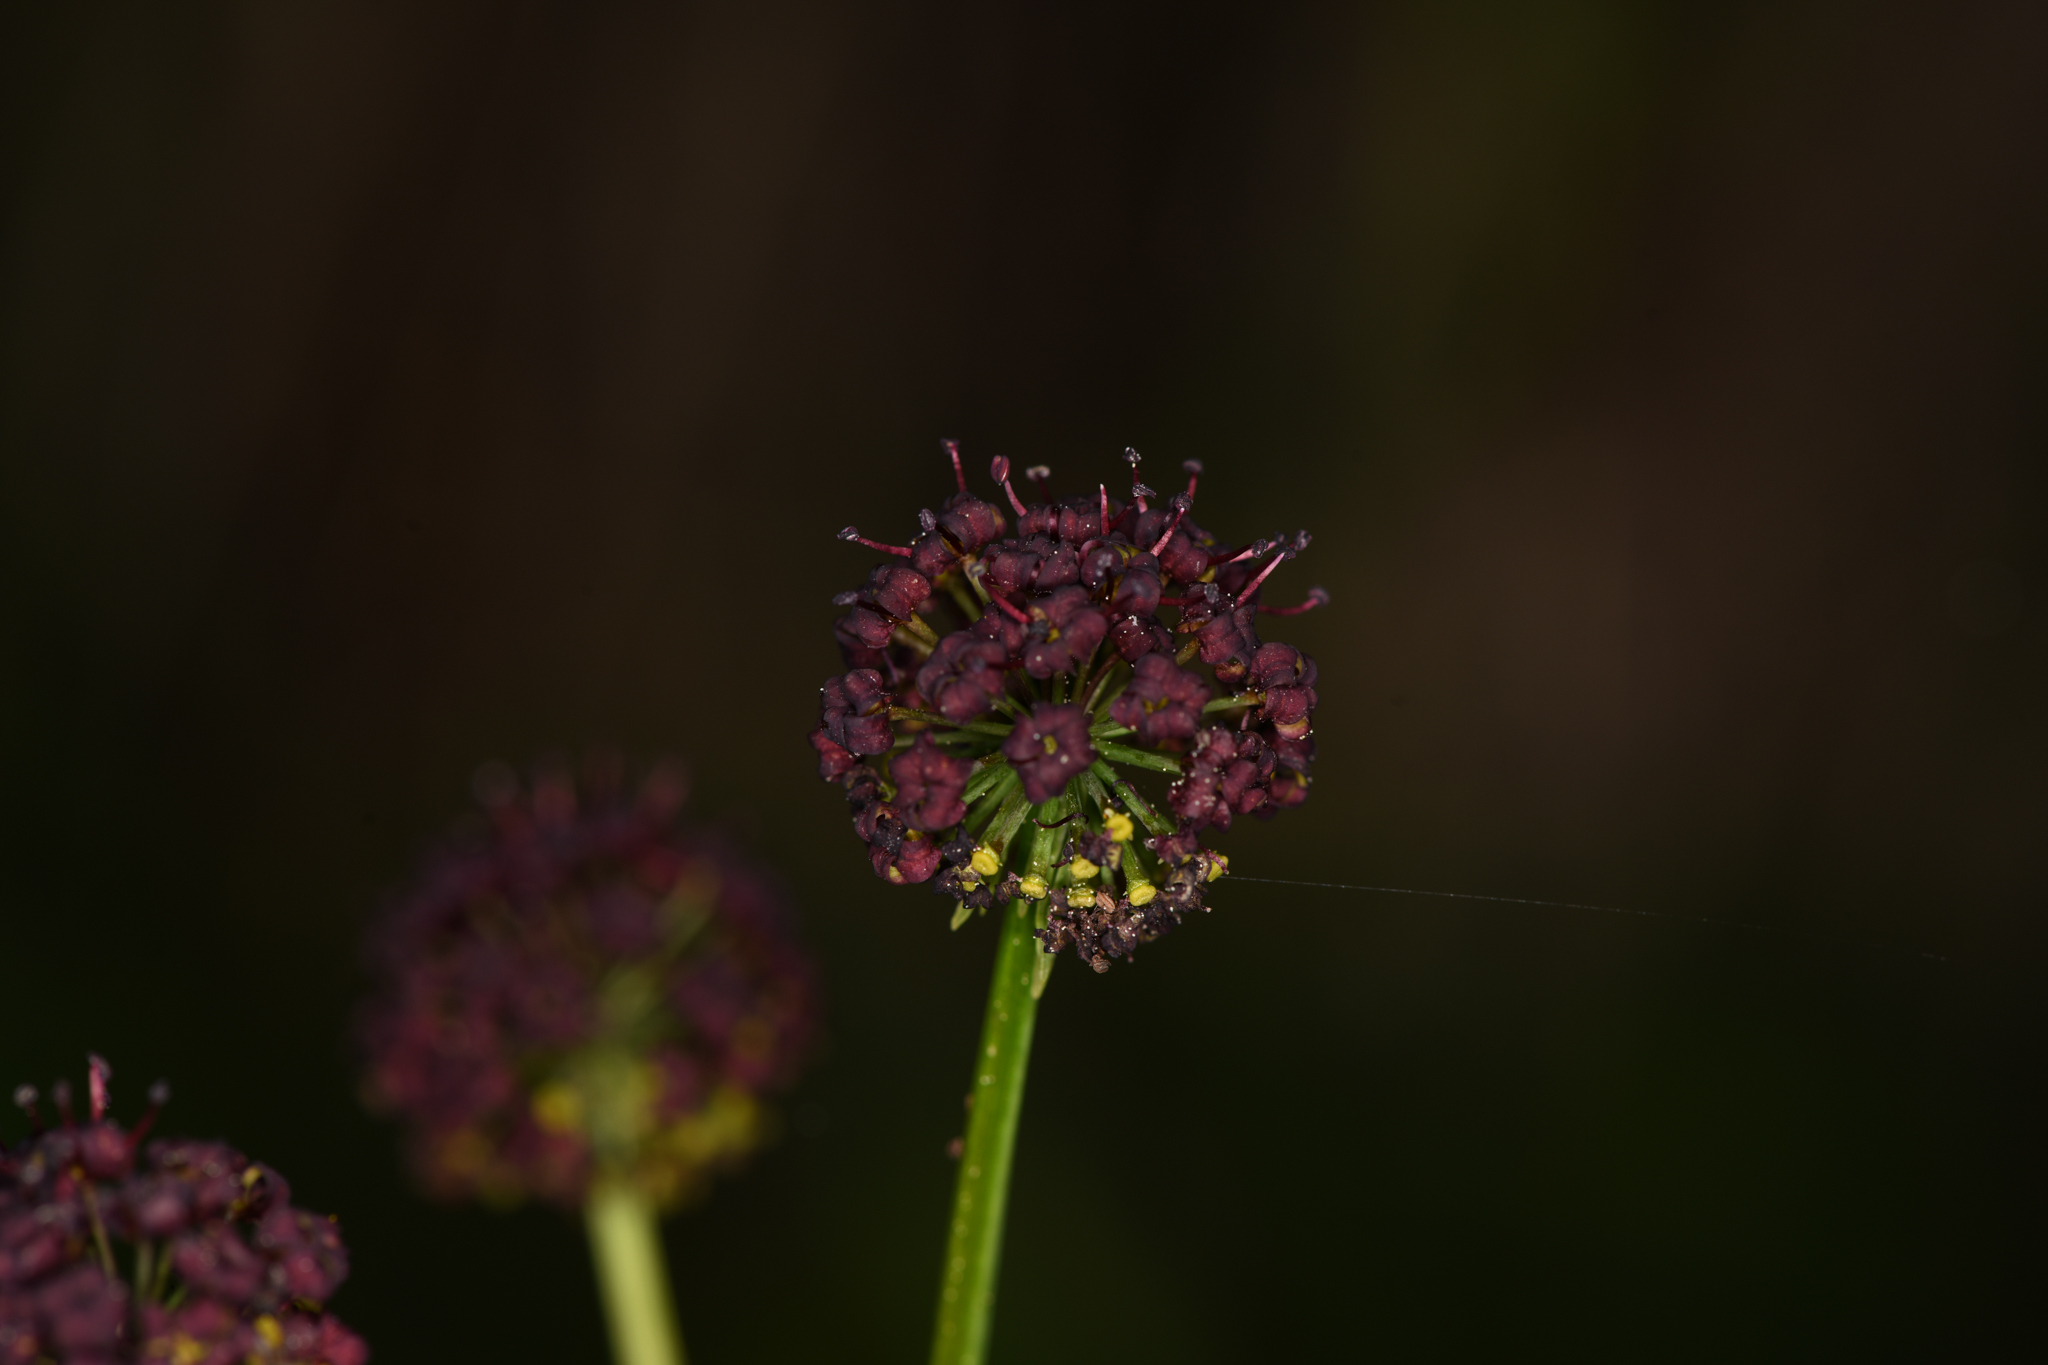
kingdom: Plantae
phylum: Tracheophyta
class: Magnoliopsida
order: Apiales
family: Apiaceae
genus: Lomatium
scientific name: Lomatium multifidum
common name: Carrot-leaved biscuitroot
